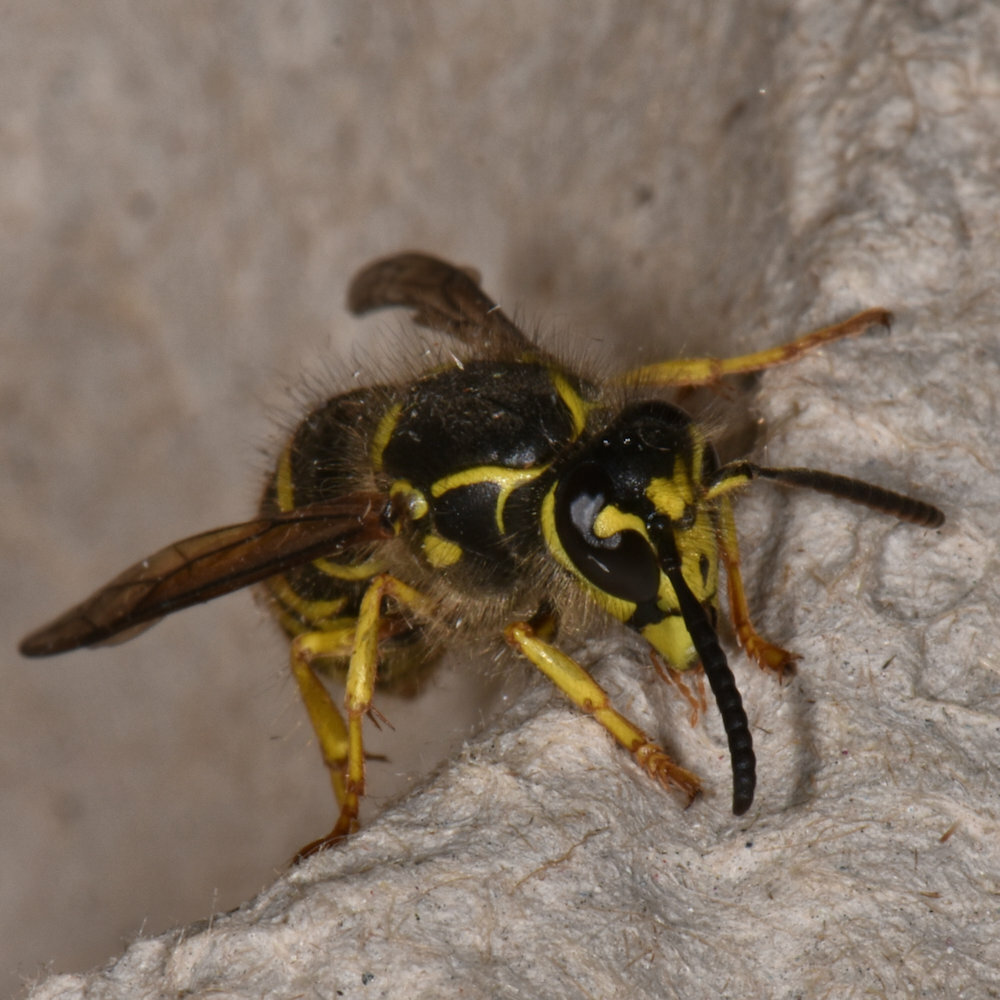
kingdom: Animalia
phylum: Arthropoda
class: Insecta
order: Hymenoptera
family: Vespidae
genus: Dolichovespula
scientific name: Dolichovespula arenaria
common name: Aerial yellowjacket
